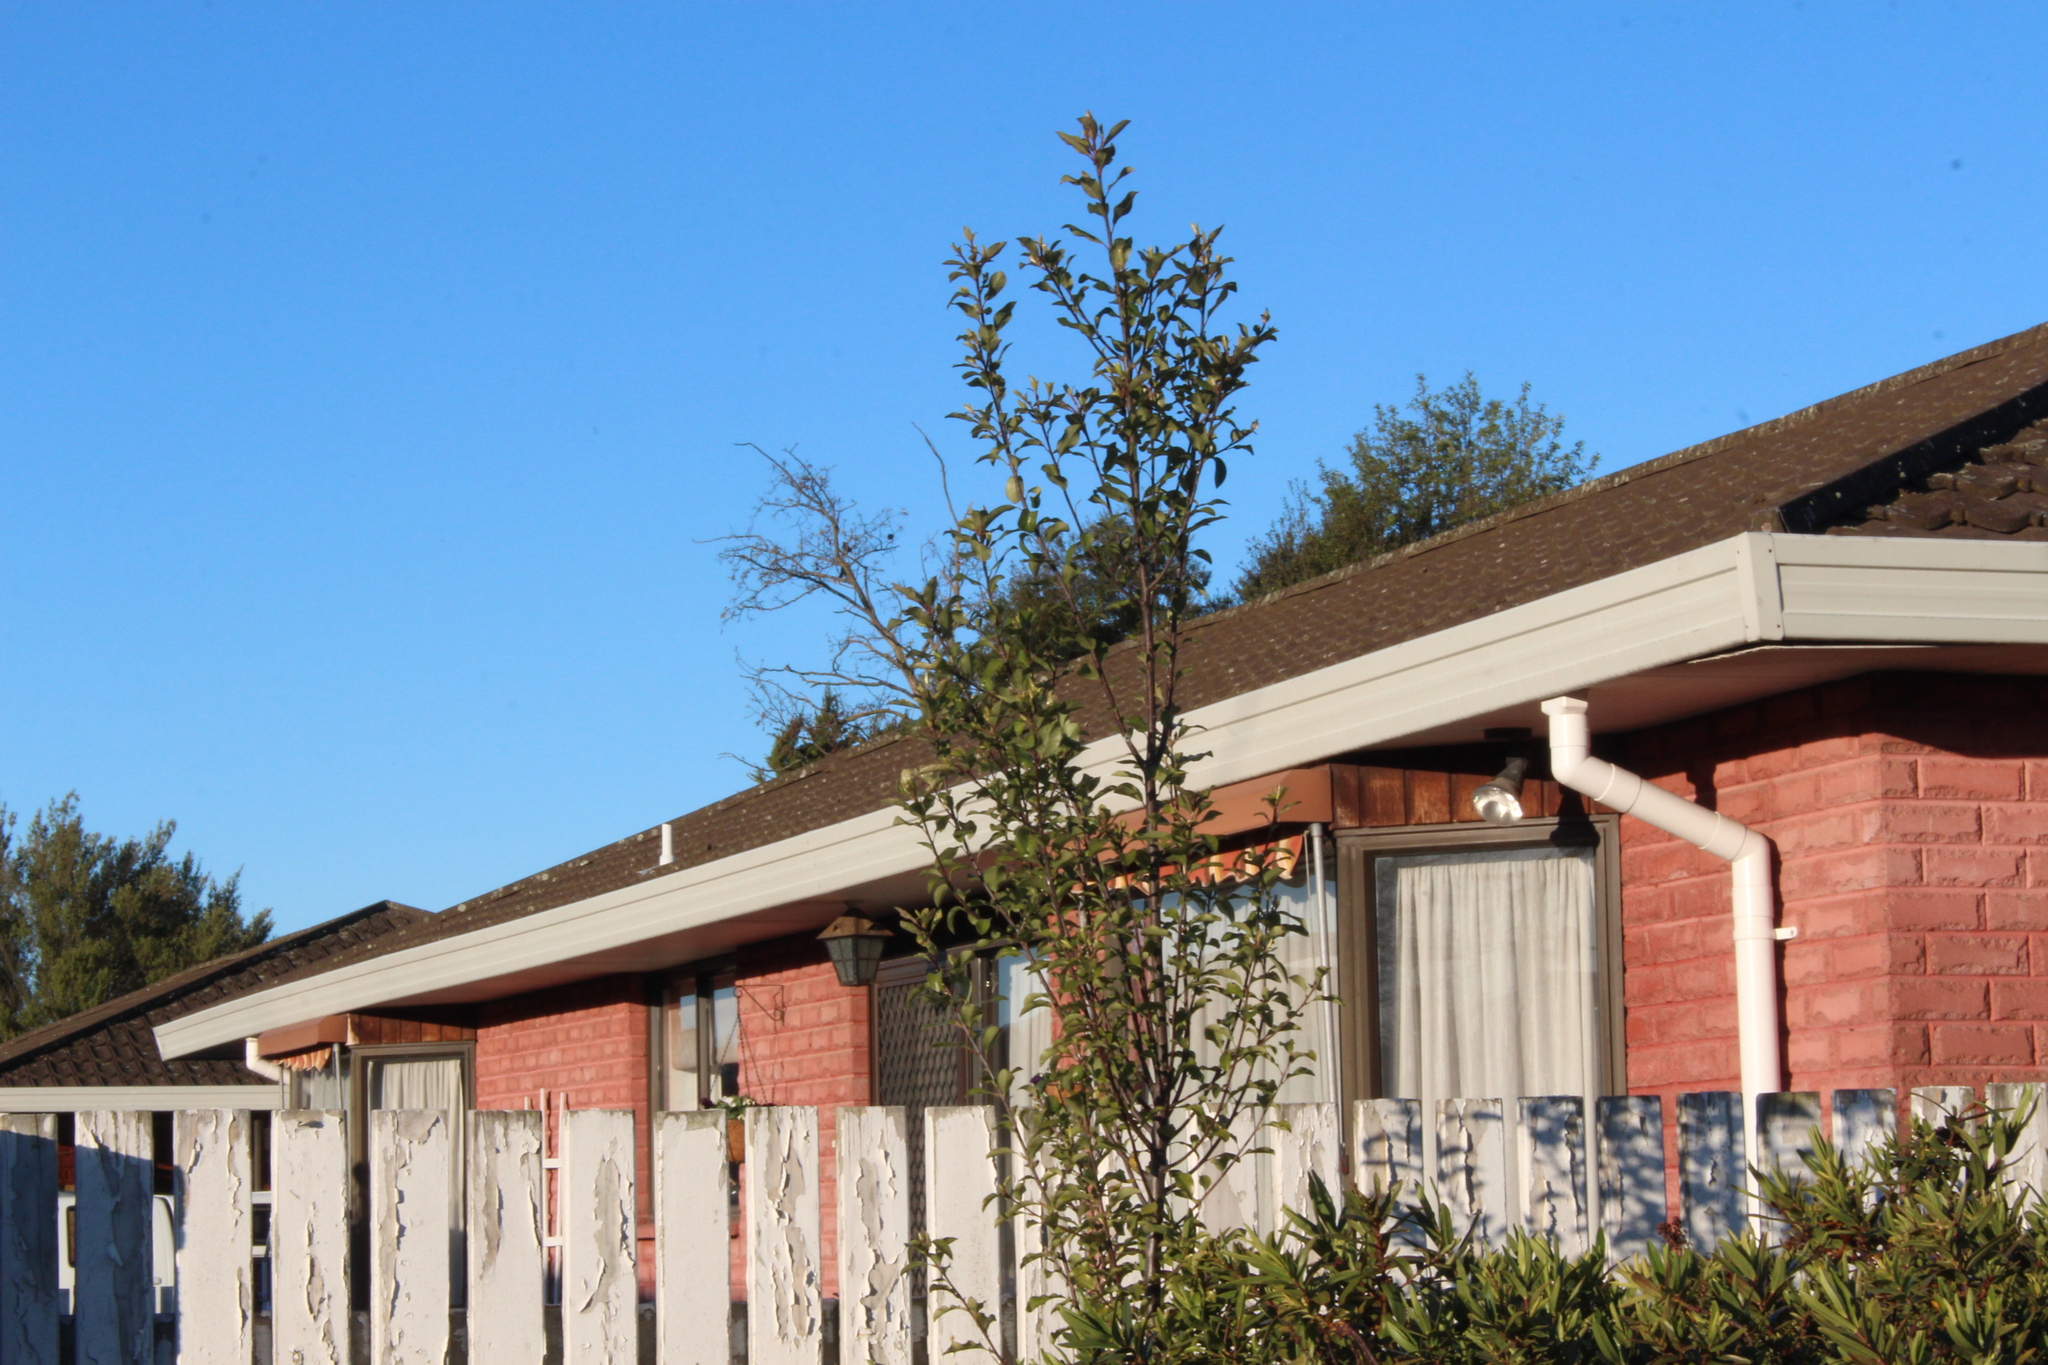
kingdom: Plantae
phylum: Tracheophyta
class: Magnoliopsida
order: Apiales
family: Pittosporaceae
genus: Pittosporum
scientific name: Pittosporum tenuifolium
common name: Kohuhu
